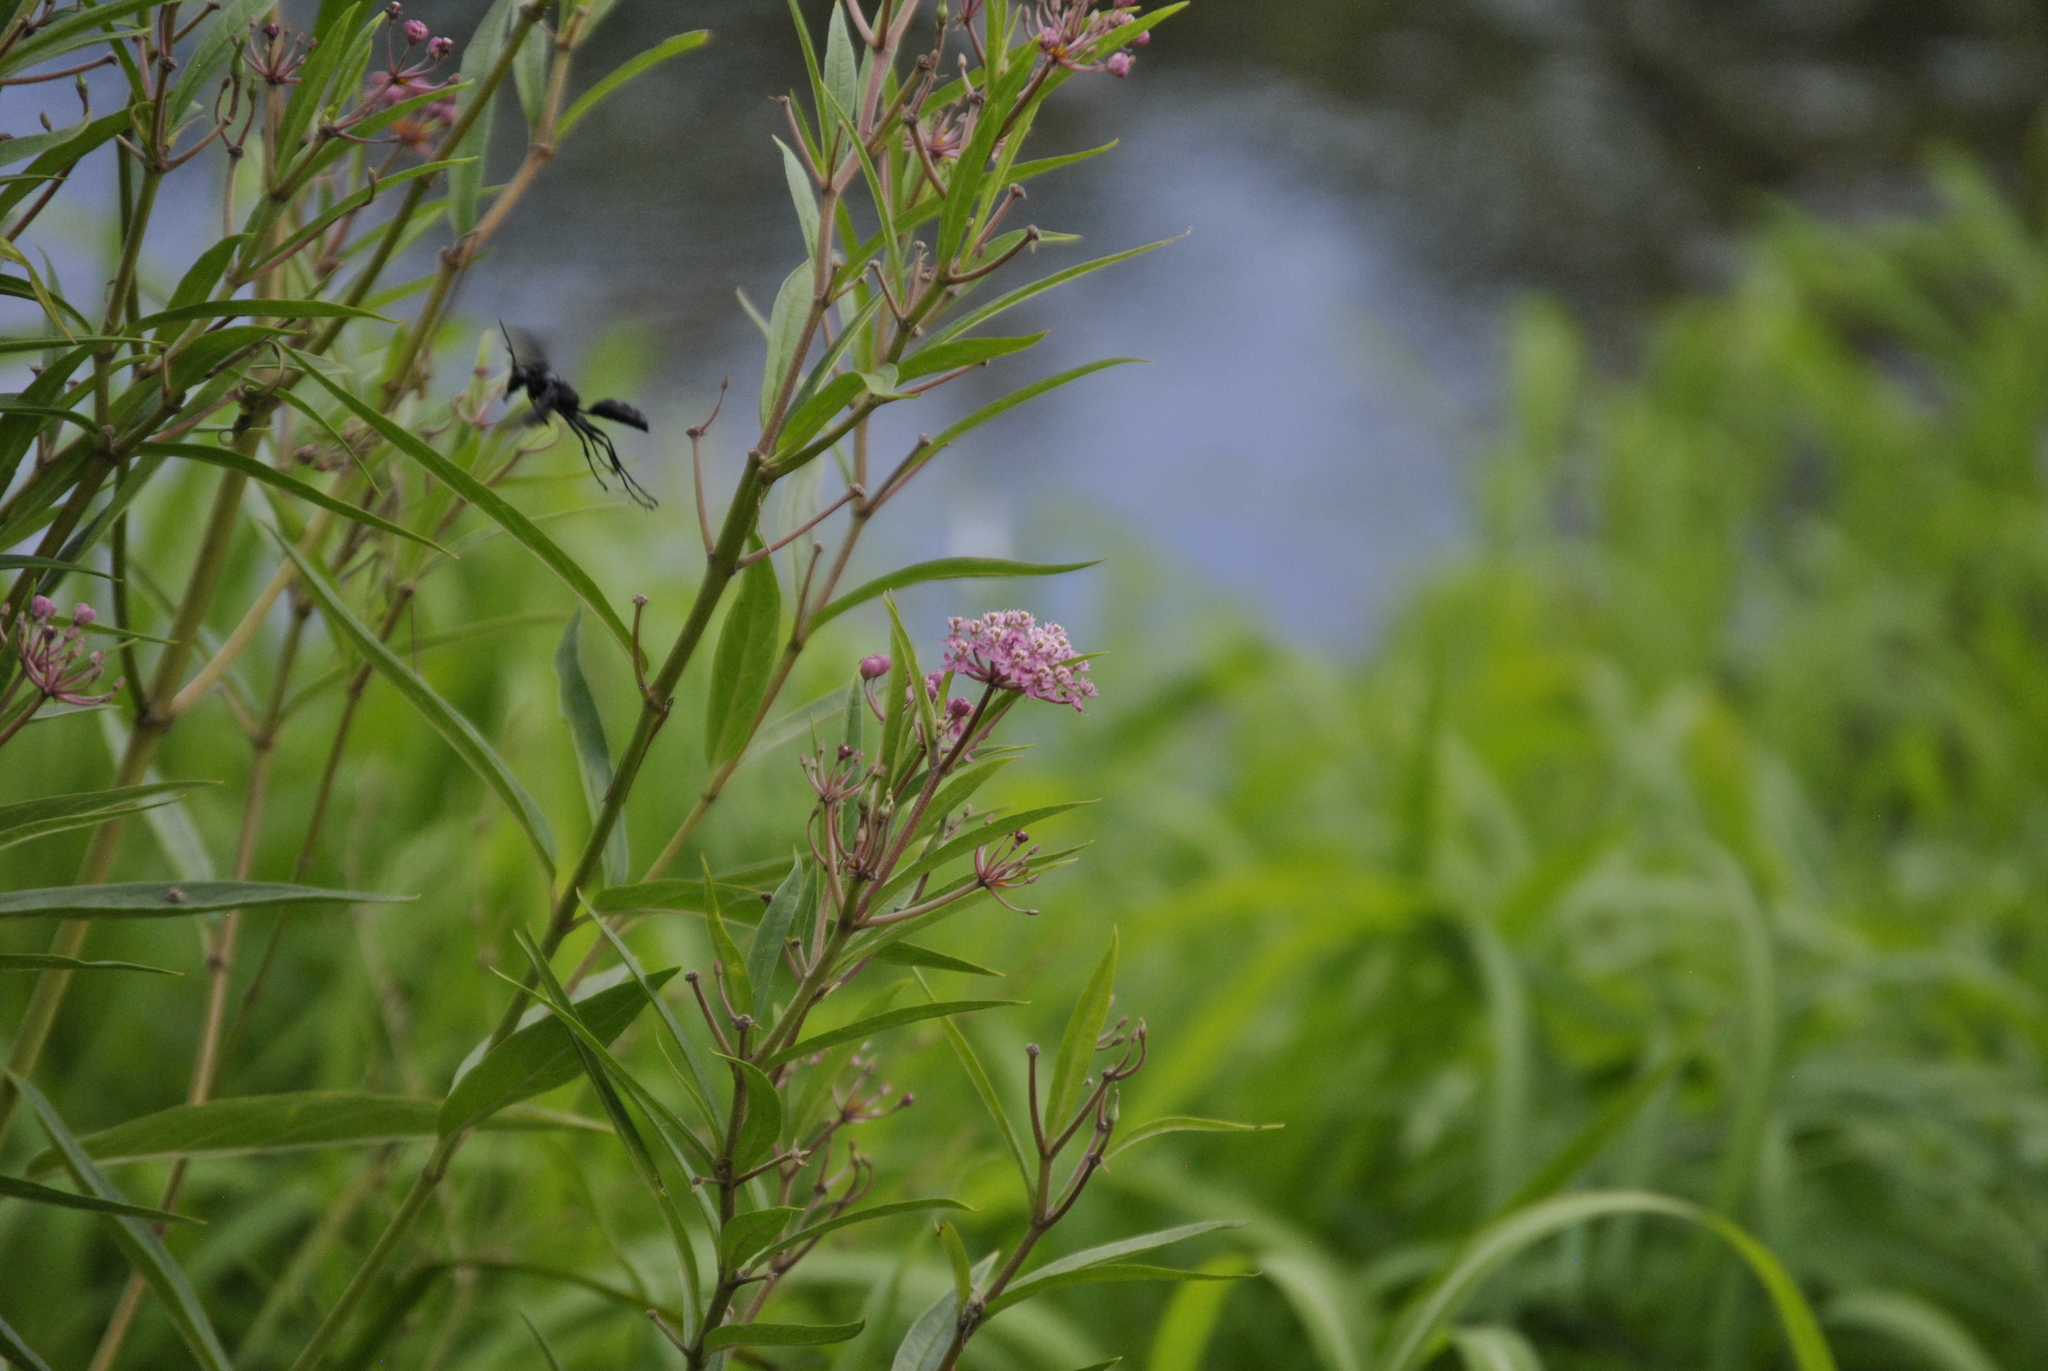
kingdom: Plantae
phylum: Tracheophyta
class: Magnoliopsida
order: Gentianales
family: Apocynaceae
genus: Asclepias
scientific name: Asclepias incarnata
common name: Swamp milkweed
